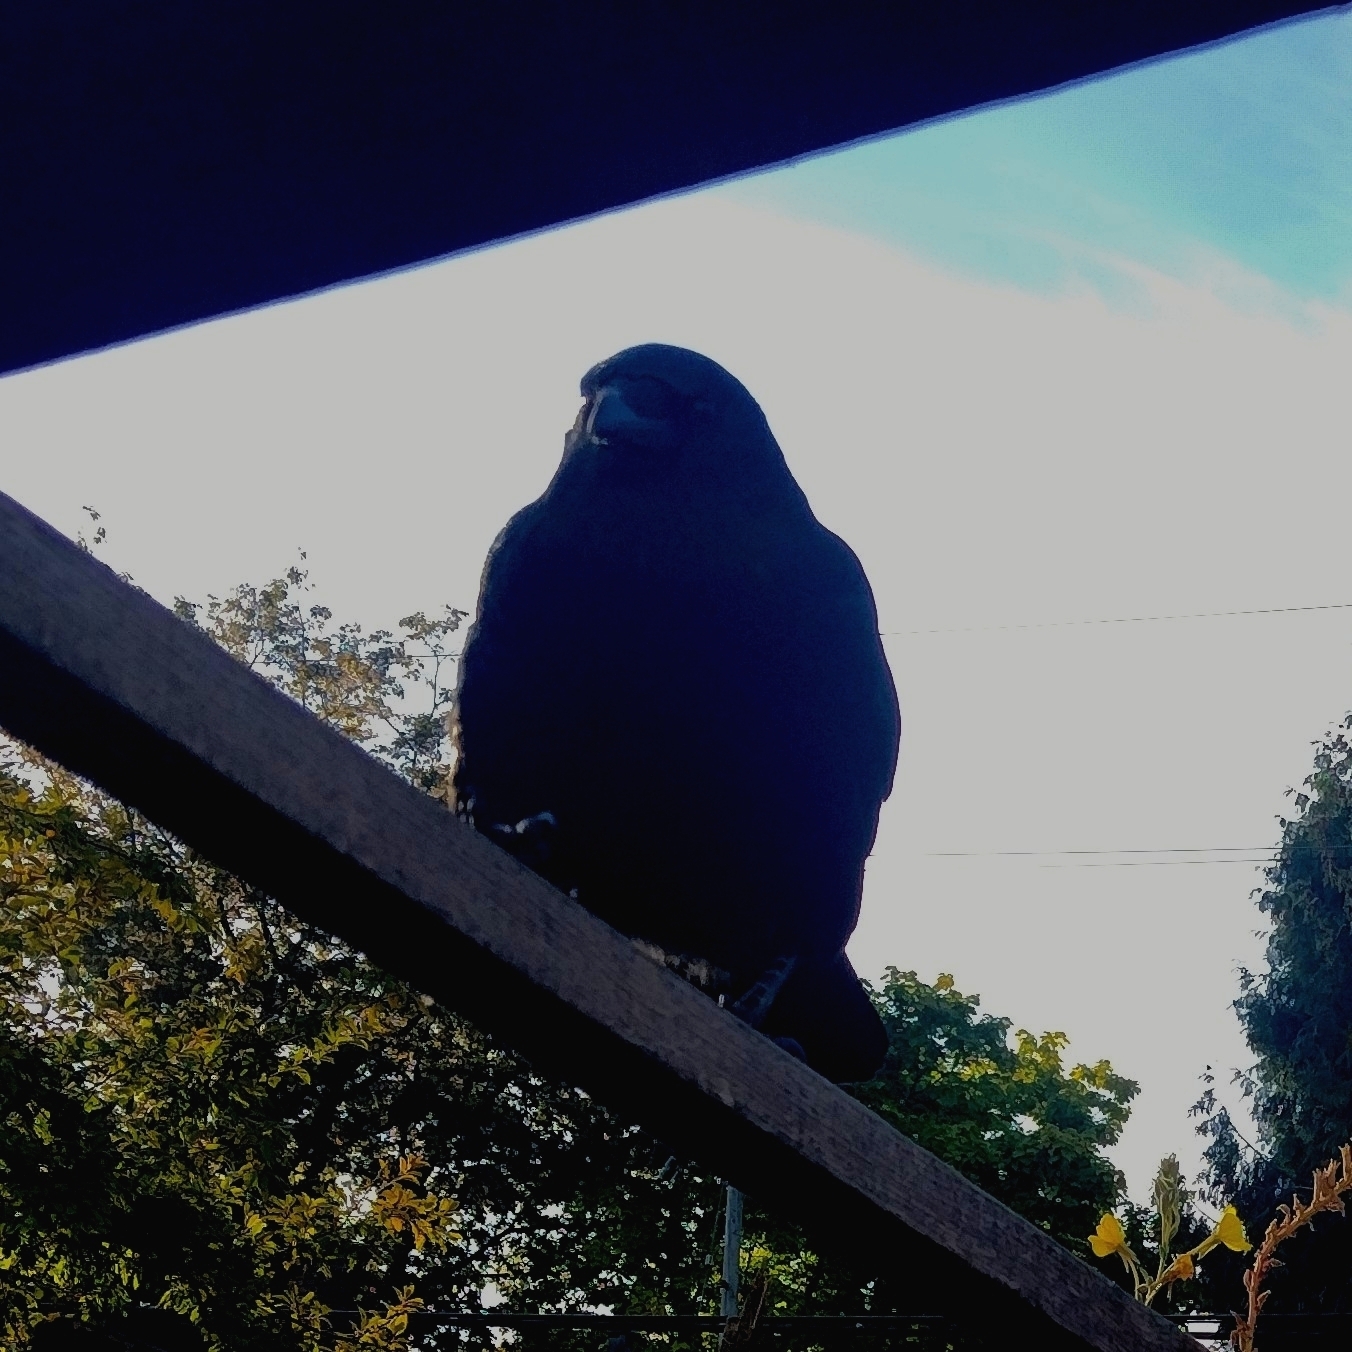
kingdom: Animalia
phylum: Chordata
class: Aves
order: Passeriformes
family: Corvidae
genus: Corvus
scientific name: Corvus brachyrhynchos
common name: American crow
